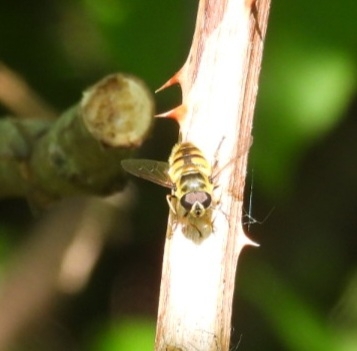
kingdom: Animalia
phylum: Arthropoda
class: Insecta
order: Diptera
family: Syrphidae
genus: Myathropa
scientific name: Myathropa florea
